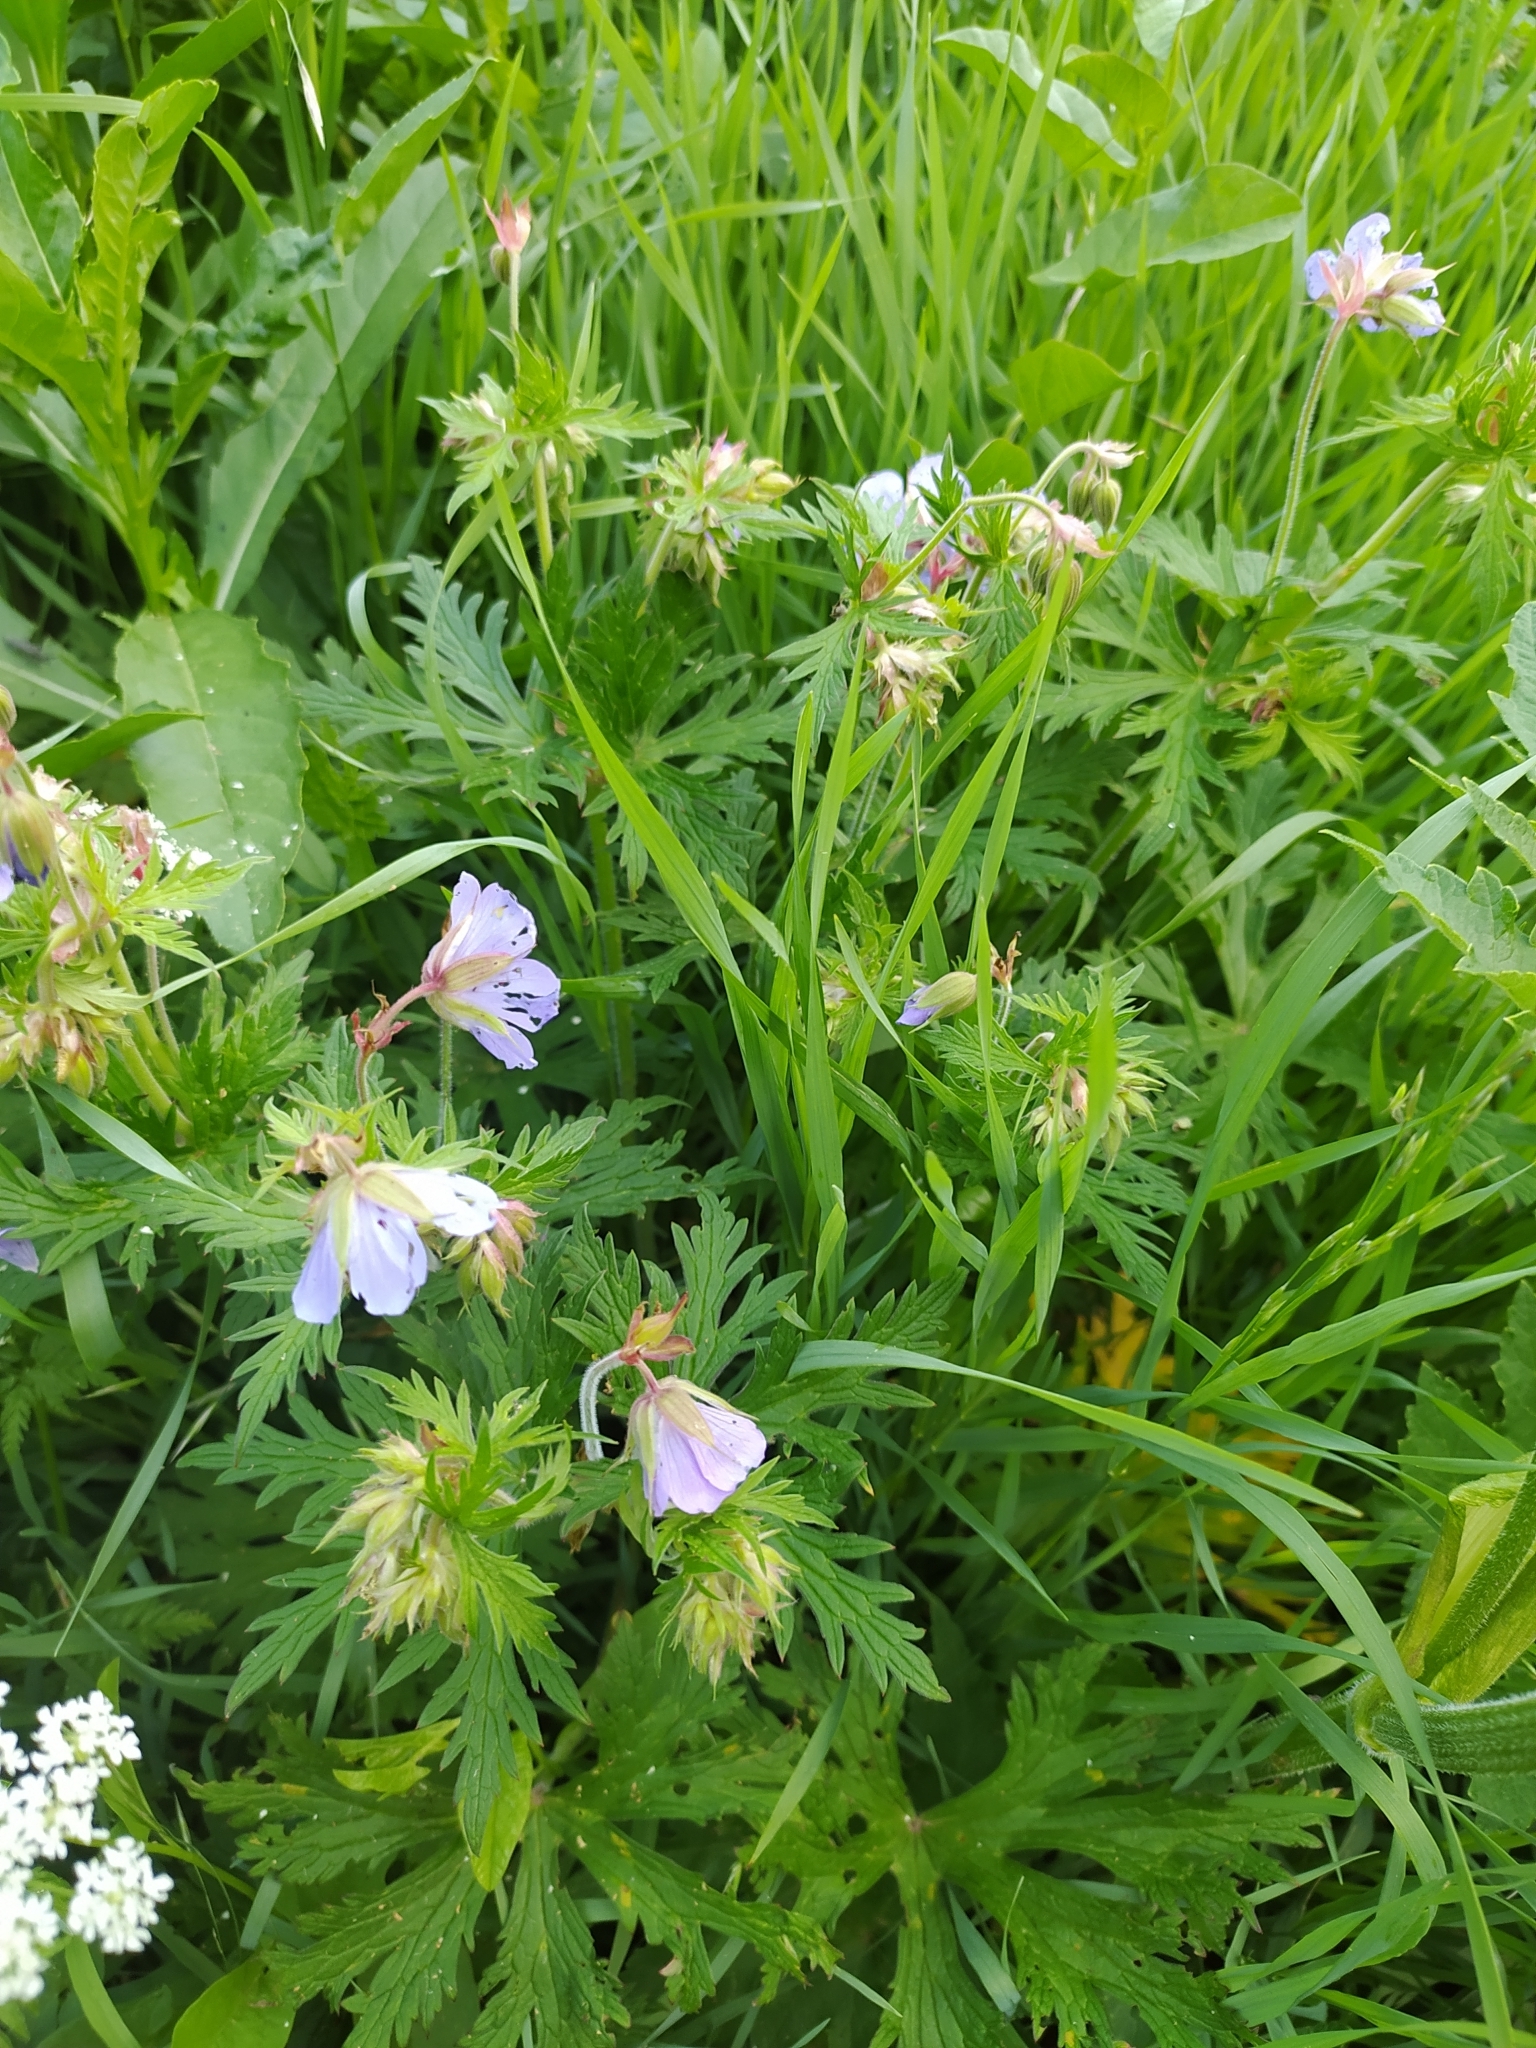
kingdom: Plantae
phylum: Tracheophyta
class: Magnoliopsida
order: Geraniales
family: Geraniaceae
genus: Geranium
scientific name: Geranium pratense
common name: Meadow crane's-bill
